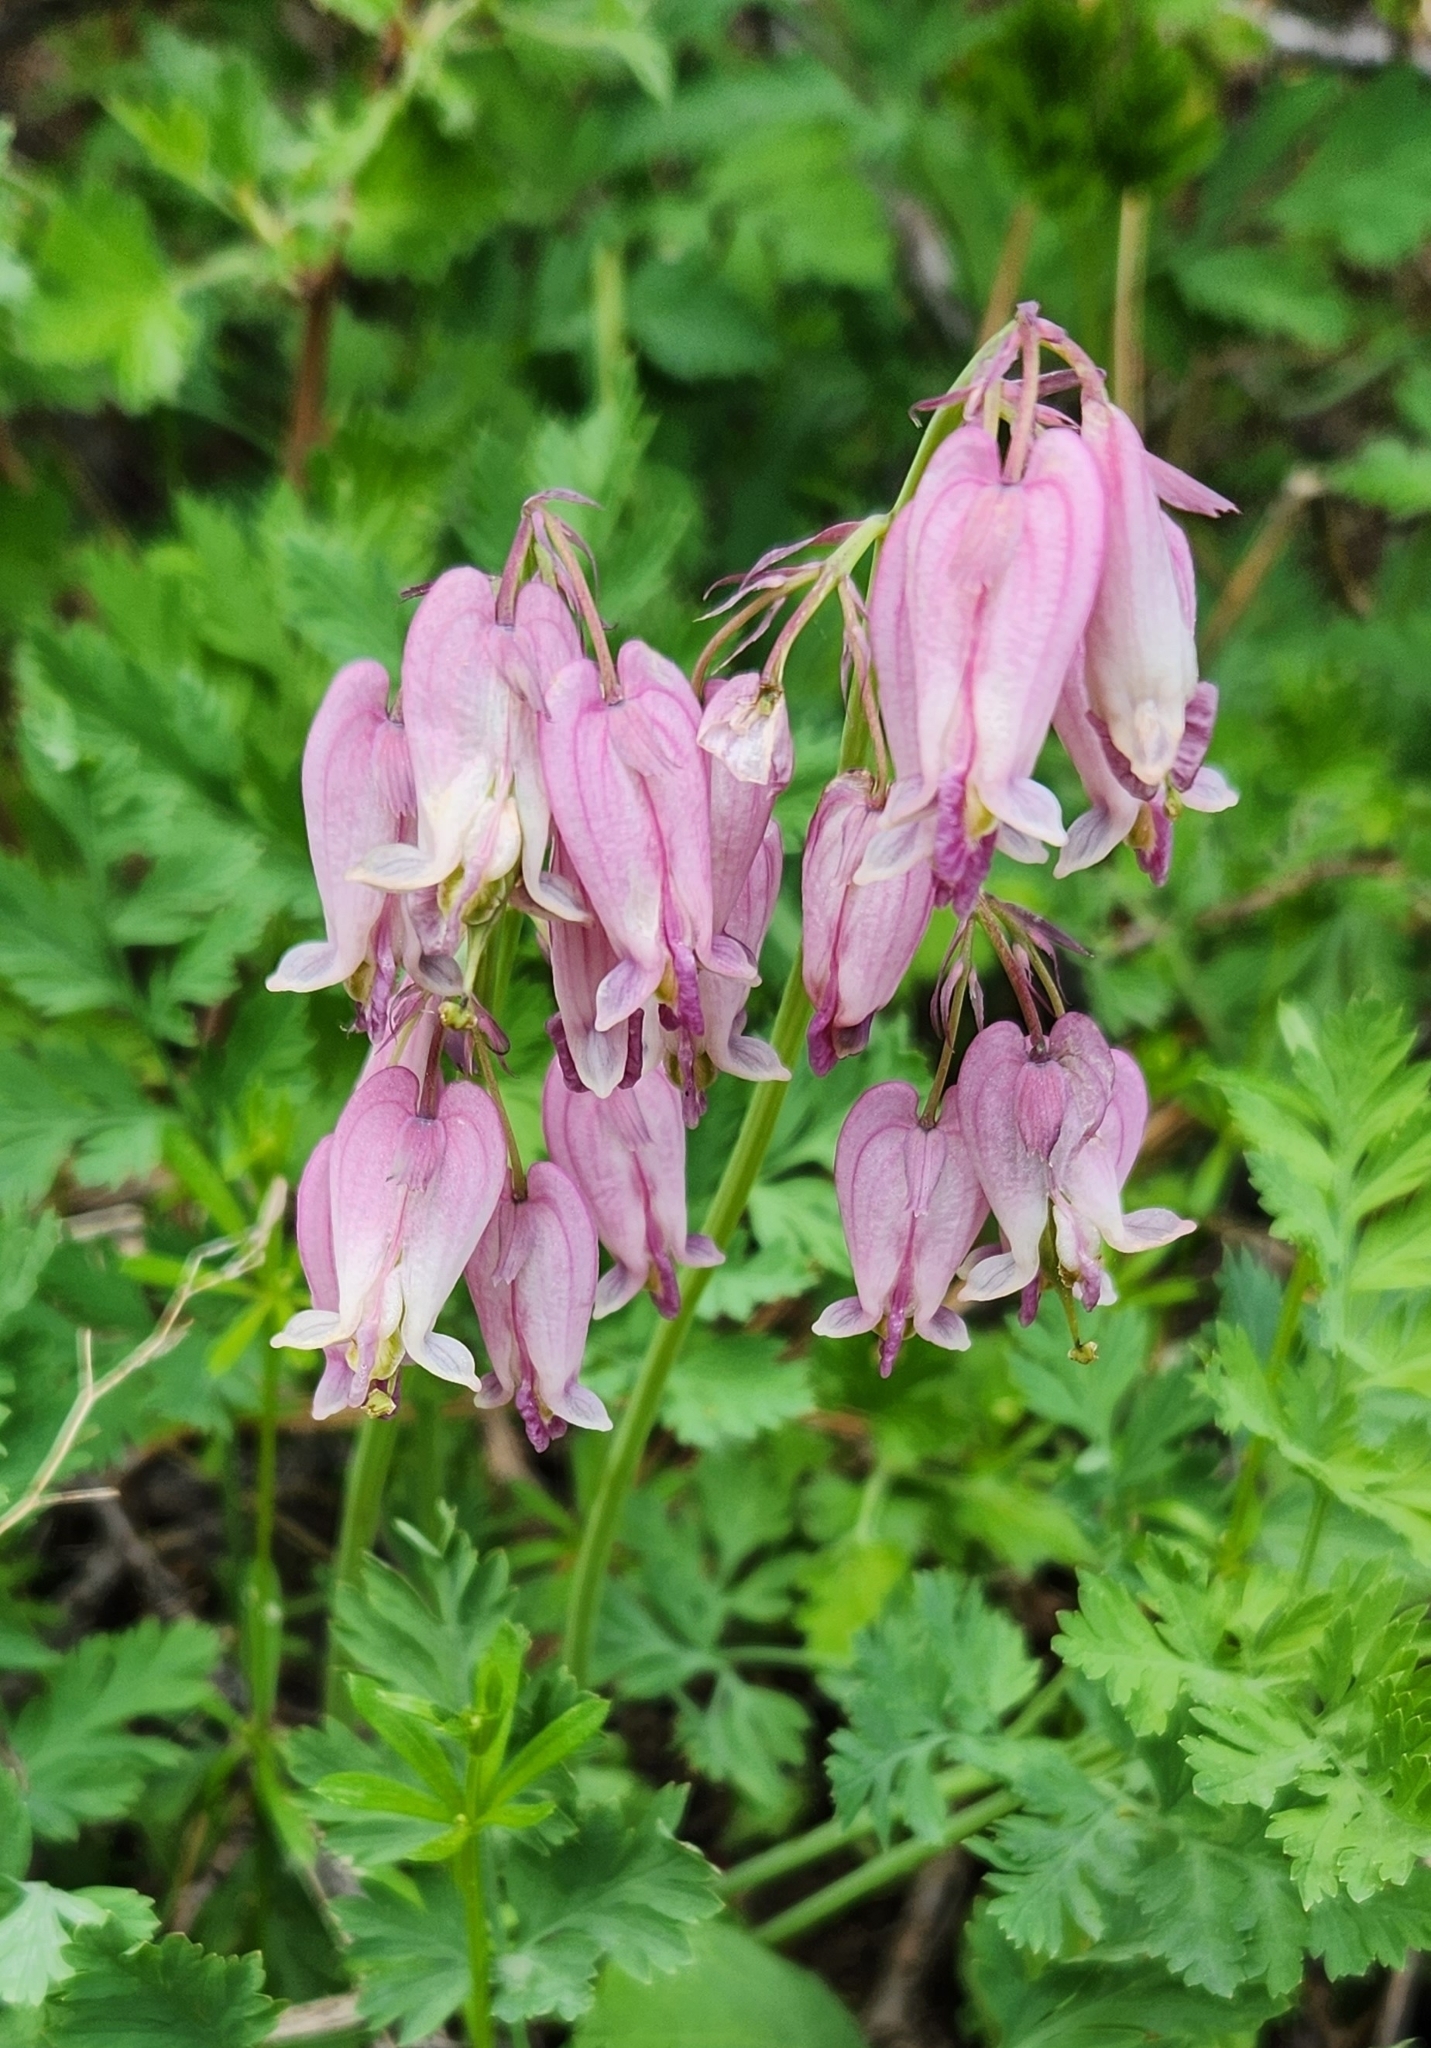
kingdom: Plantae
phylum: Tracheophyta
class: Magnoliopsida
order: Ranunculales
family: Papaveraceae
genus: Dicentra
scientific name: Dicentra formosa
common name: Bleeding-heart
